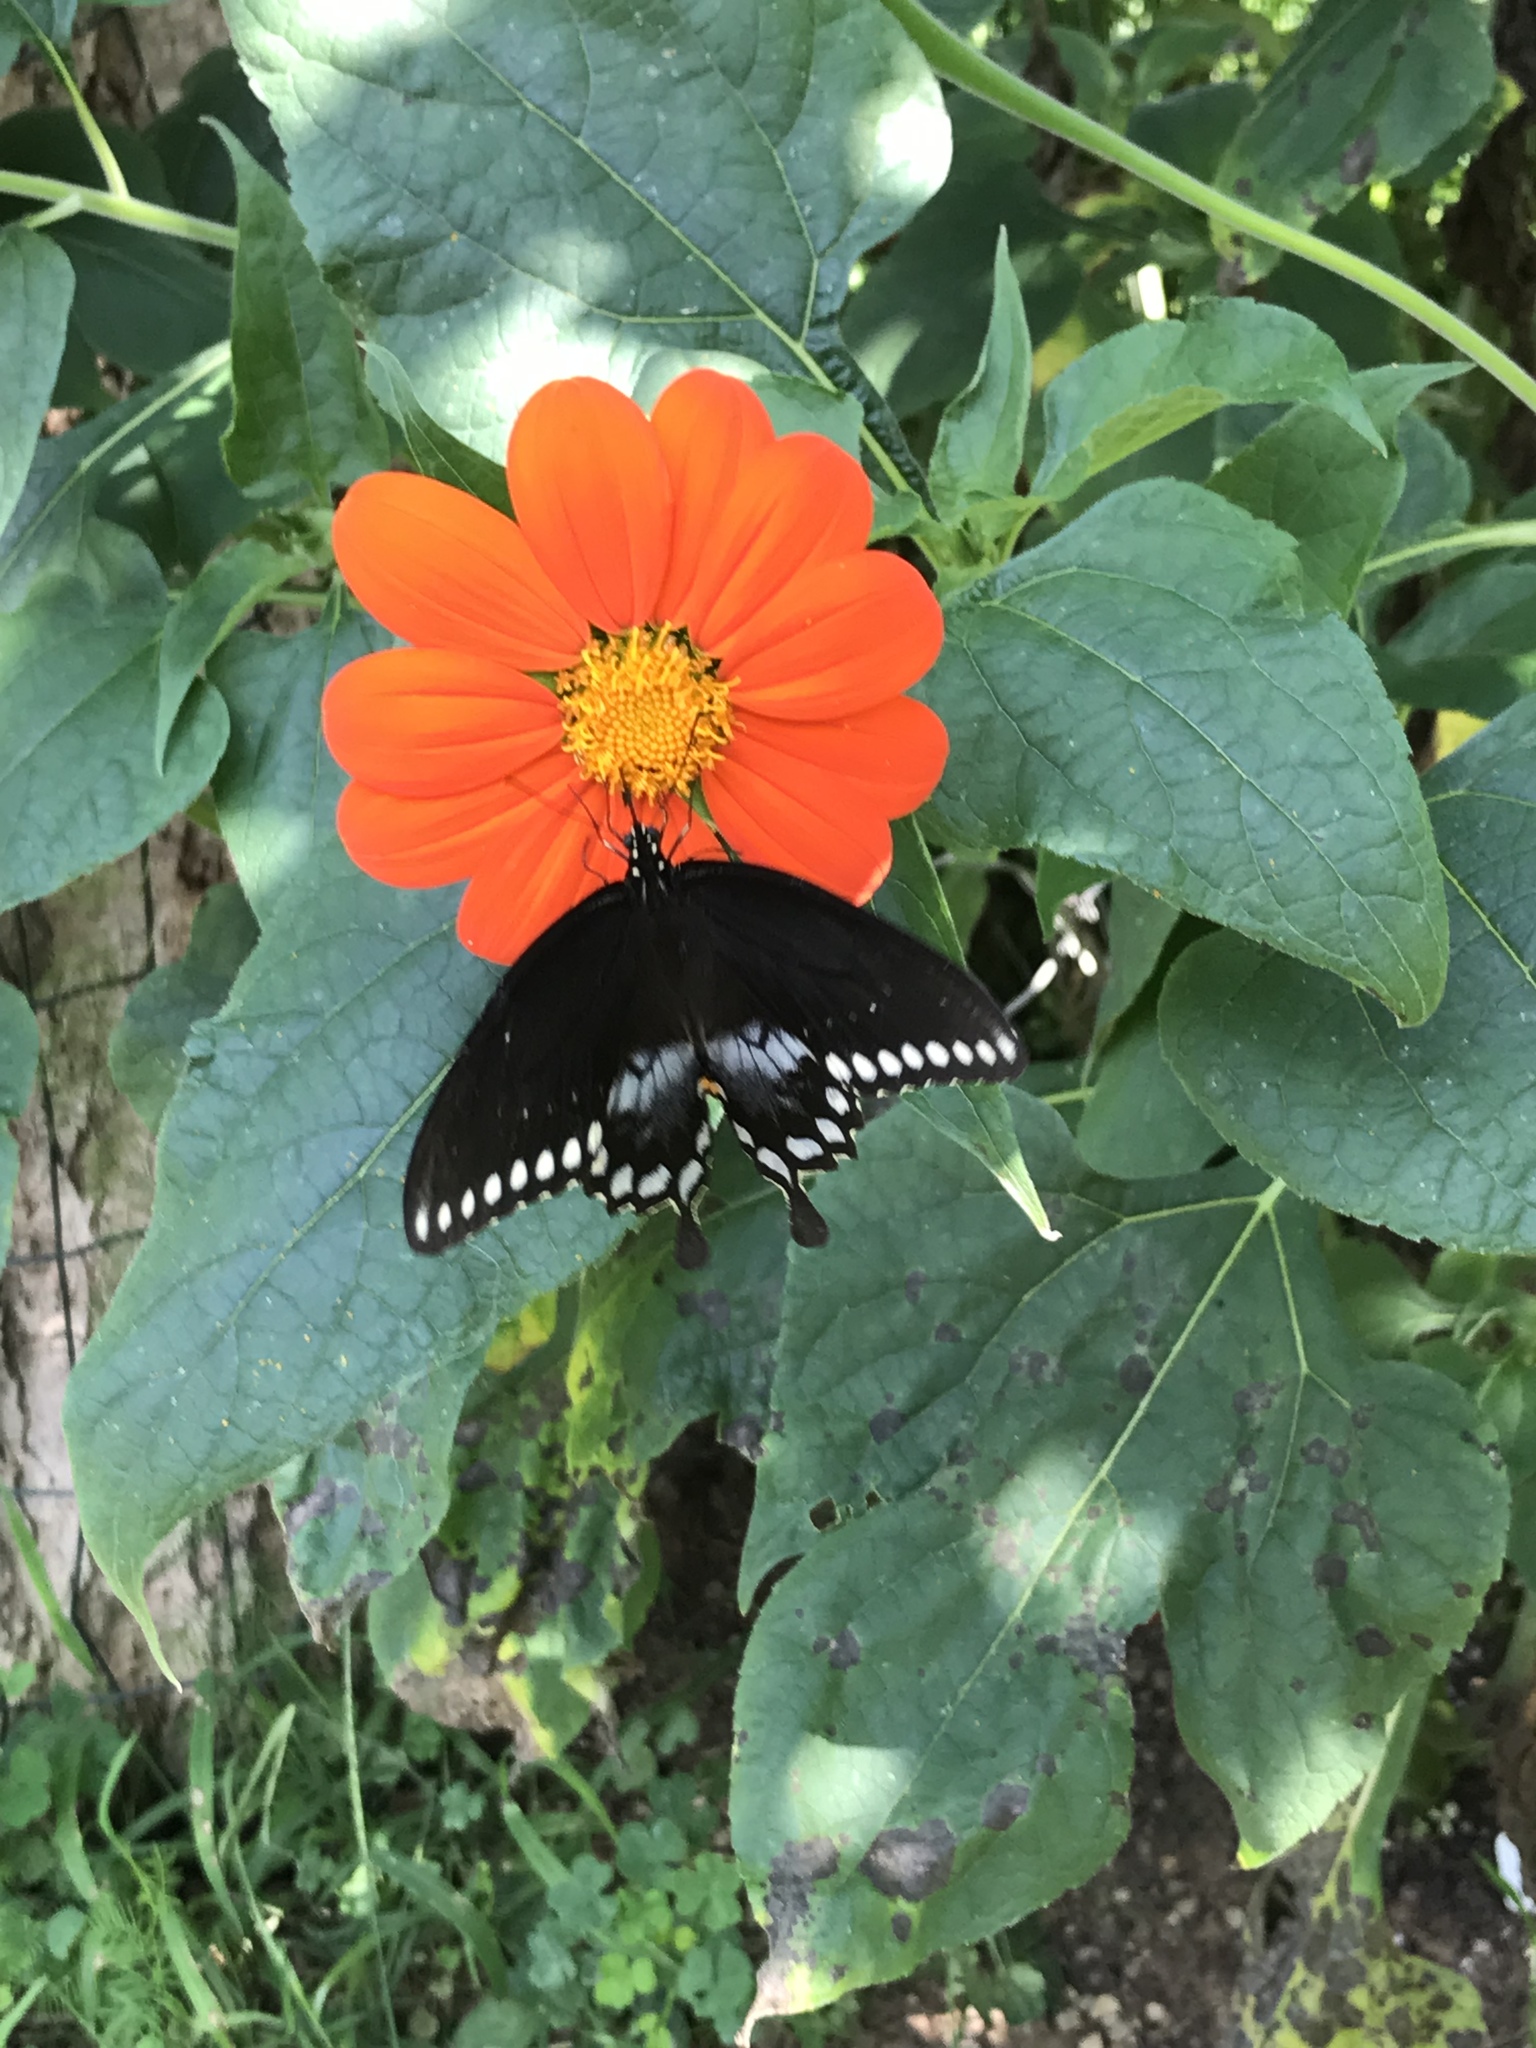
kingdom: Animalia
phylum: Arthropoda
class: Insecta
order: Lepidoptera
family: Papilionidae
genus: Papilio
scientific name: Papilio troilus
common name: Spicebush swallowtail
